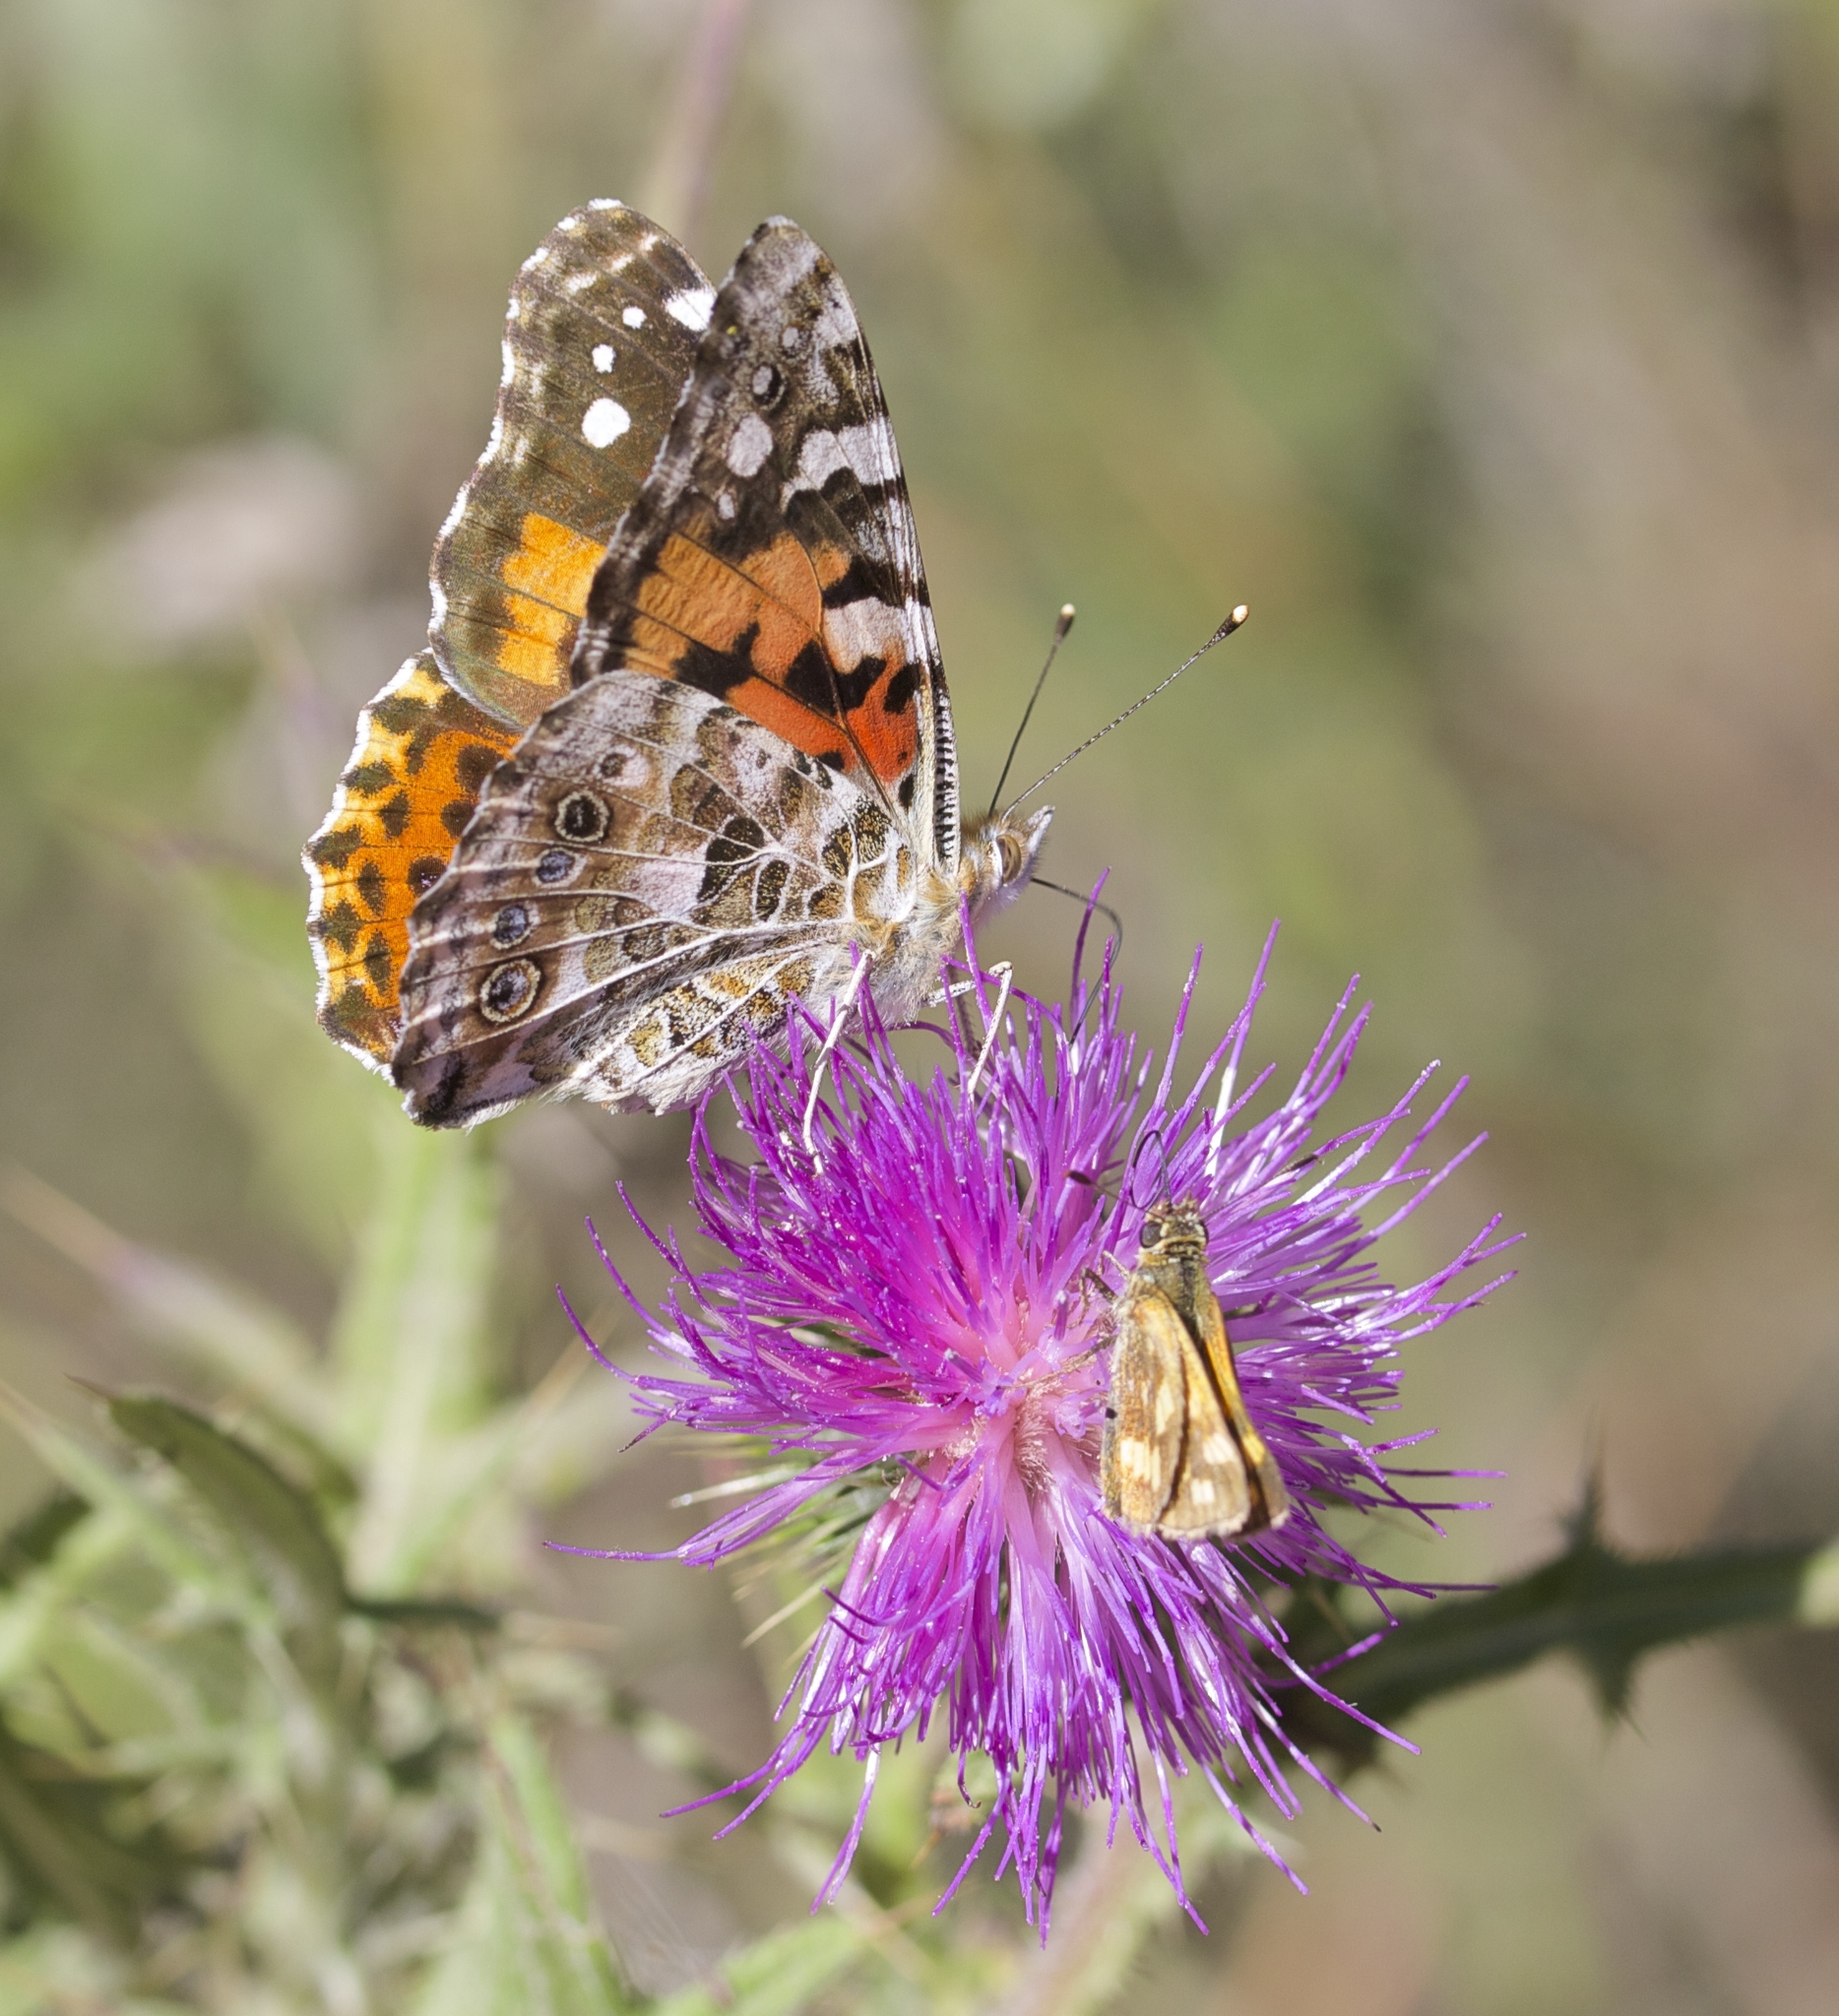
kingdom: Animalia
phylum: Arthropoda
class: Insecta
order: Lepidoptera
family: Nymphalidae
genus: Vanessa
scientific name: Vanessa cardui
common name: Painted lady
